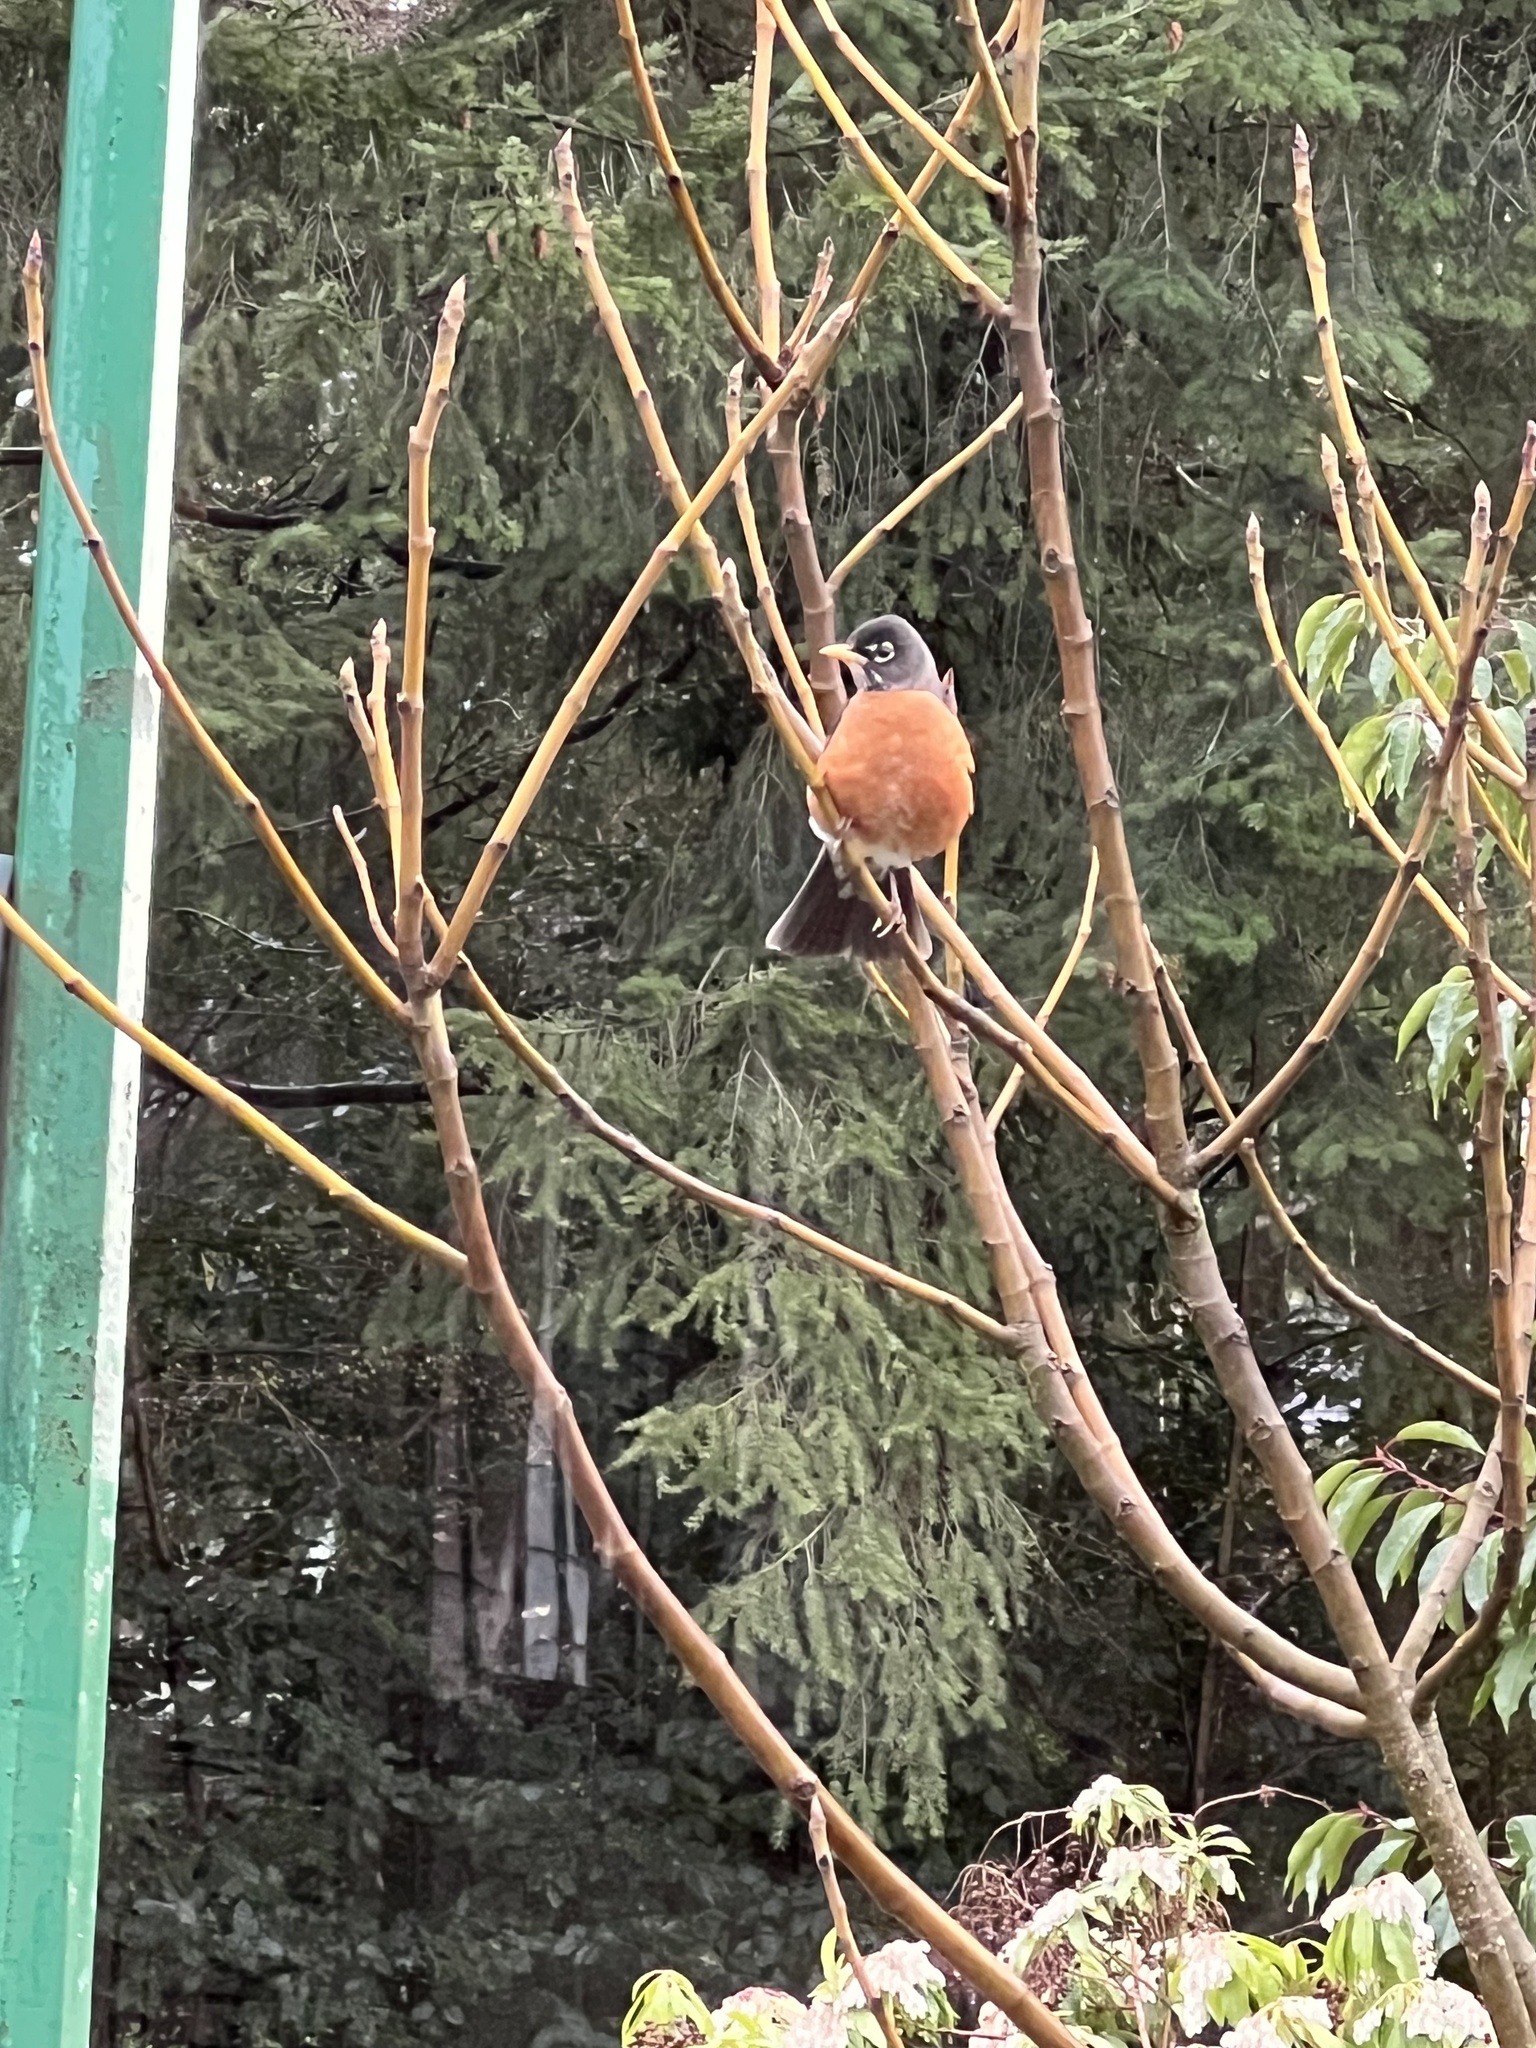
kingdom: Animalia
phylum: Chordata
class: Aves
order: Passeriformes
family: Turdidae
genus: Turdus
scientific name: Turdus migratorius
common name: American robin
